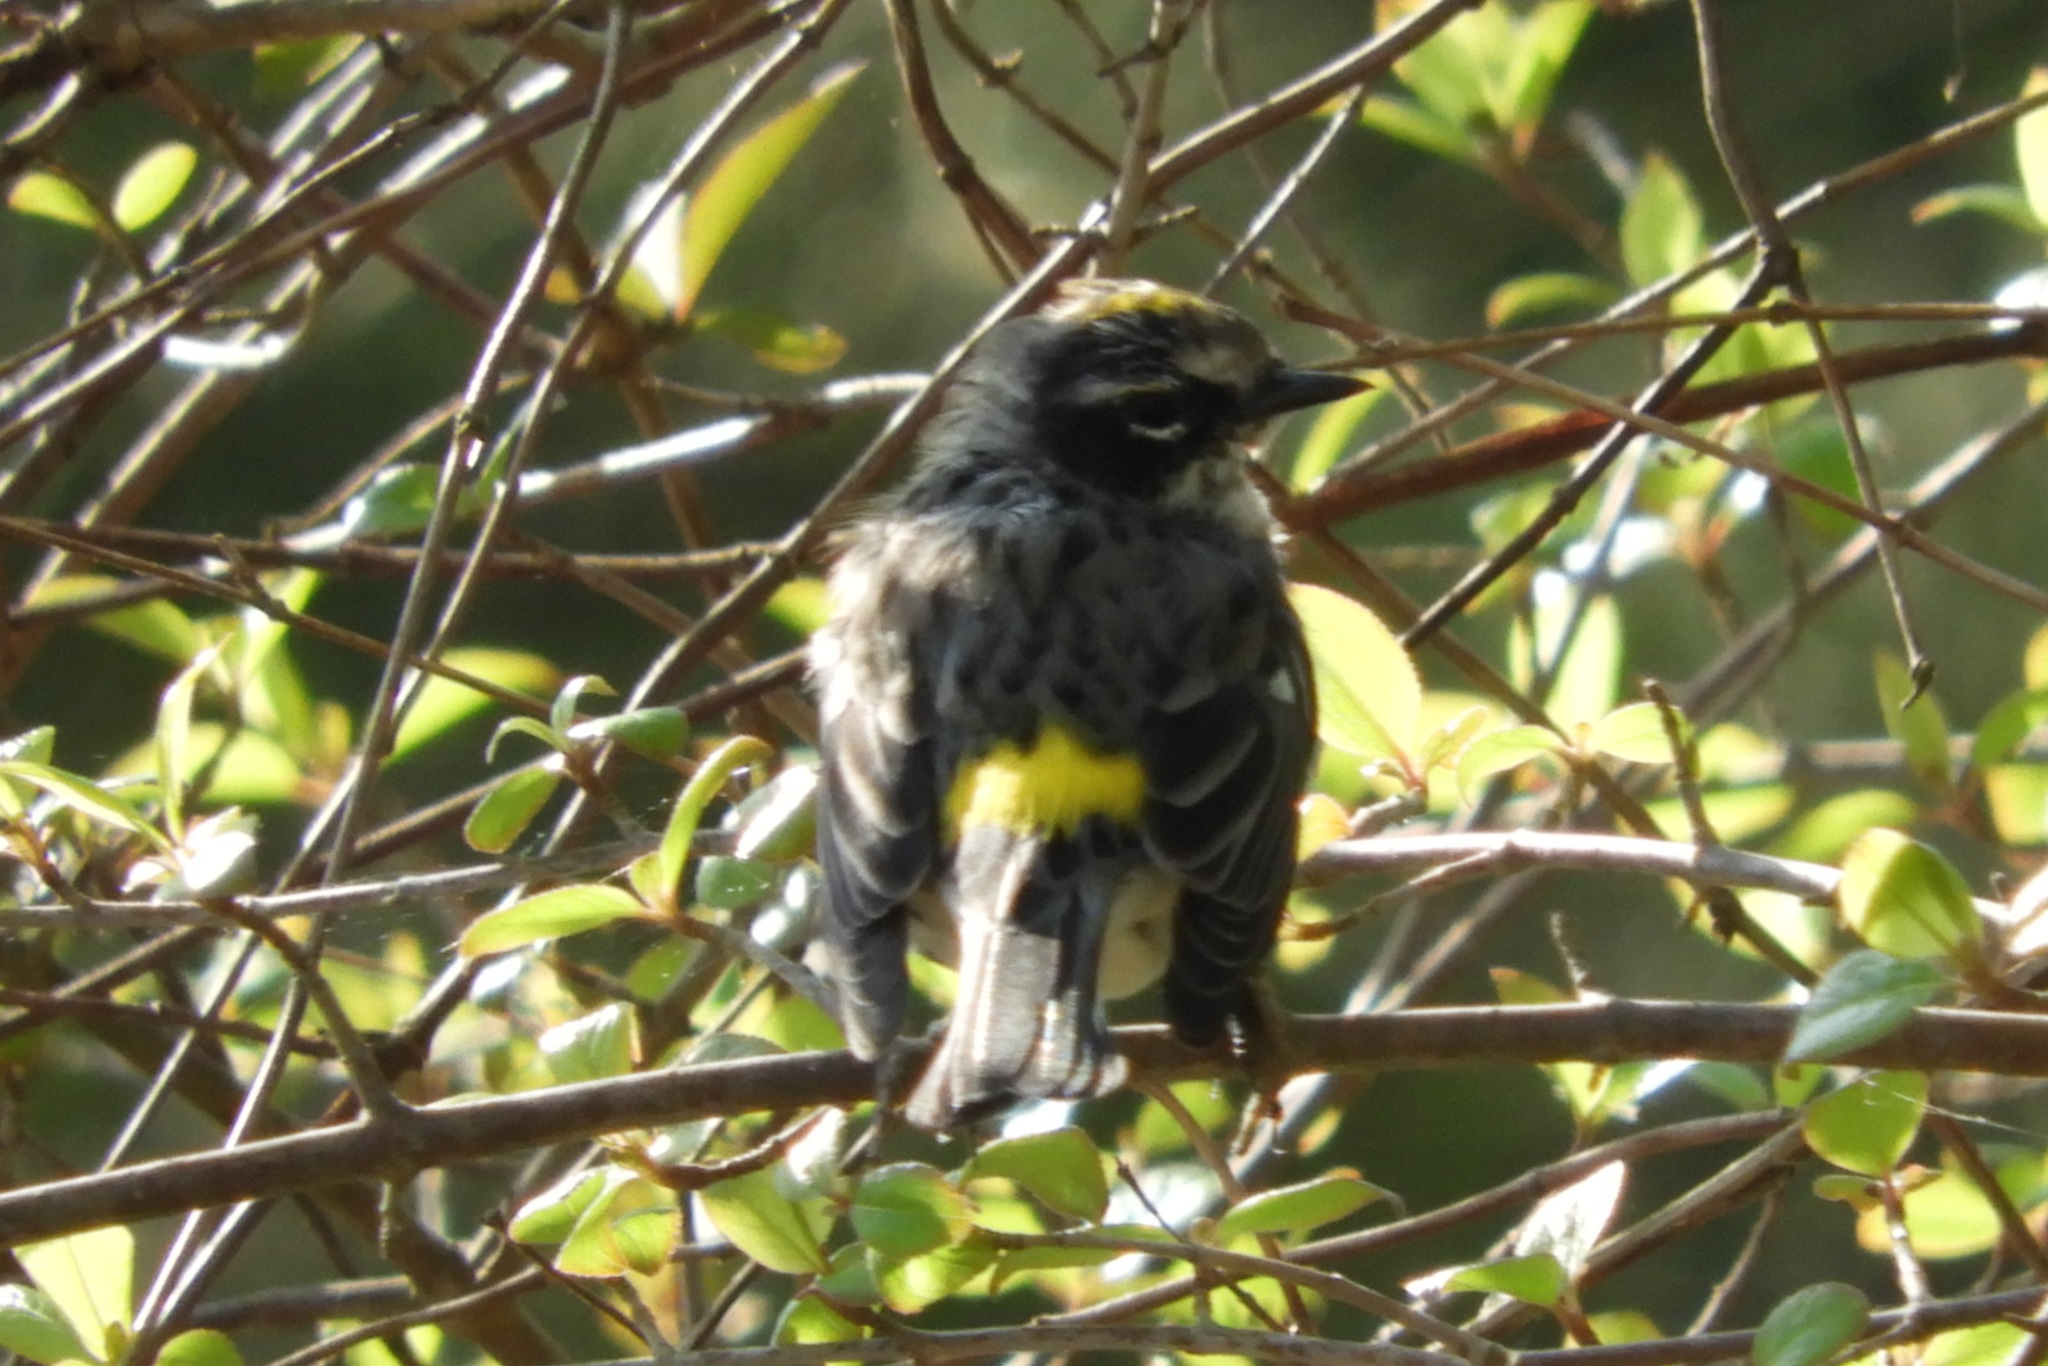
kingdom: Animalia
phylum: Chordata
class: Aves
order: Passeriformes
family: Parulidae
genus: Setophaga
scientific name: Setophaga coronata
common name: Myrtle warbler
